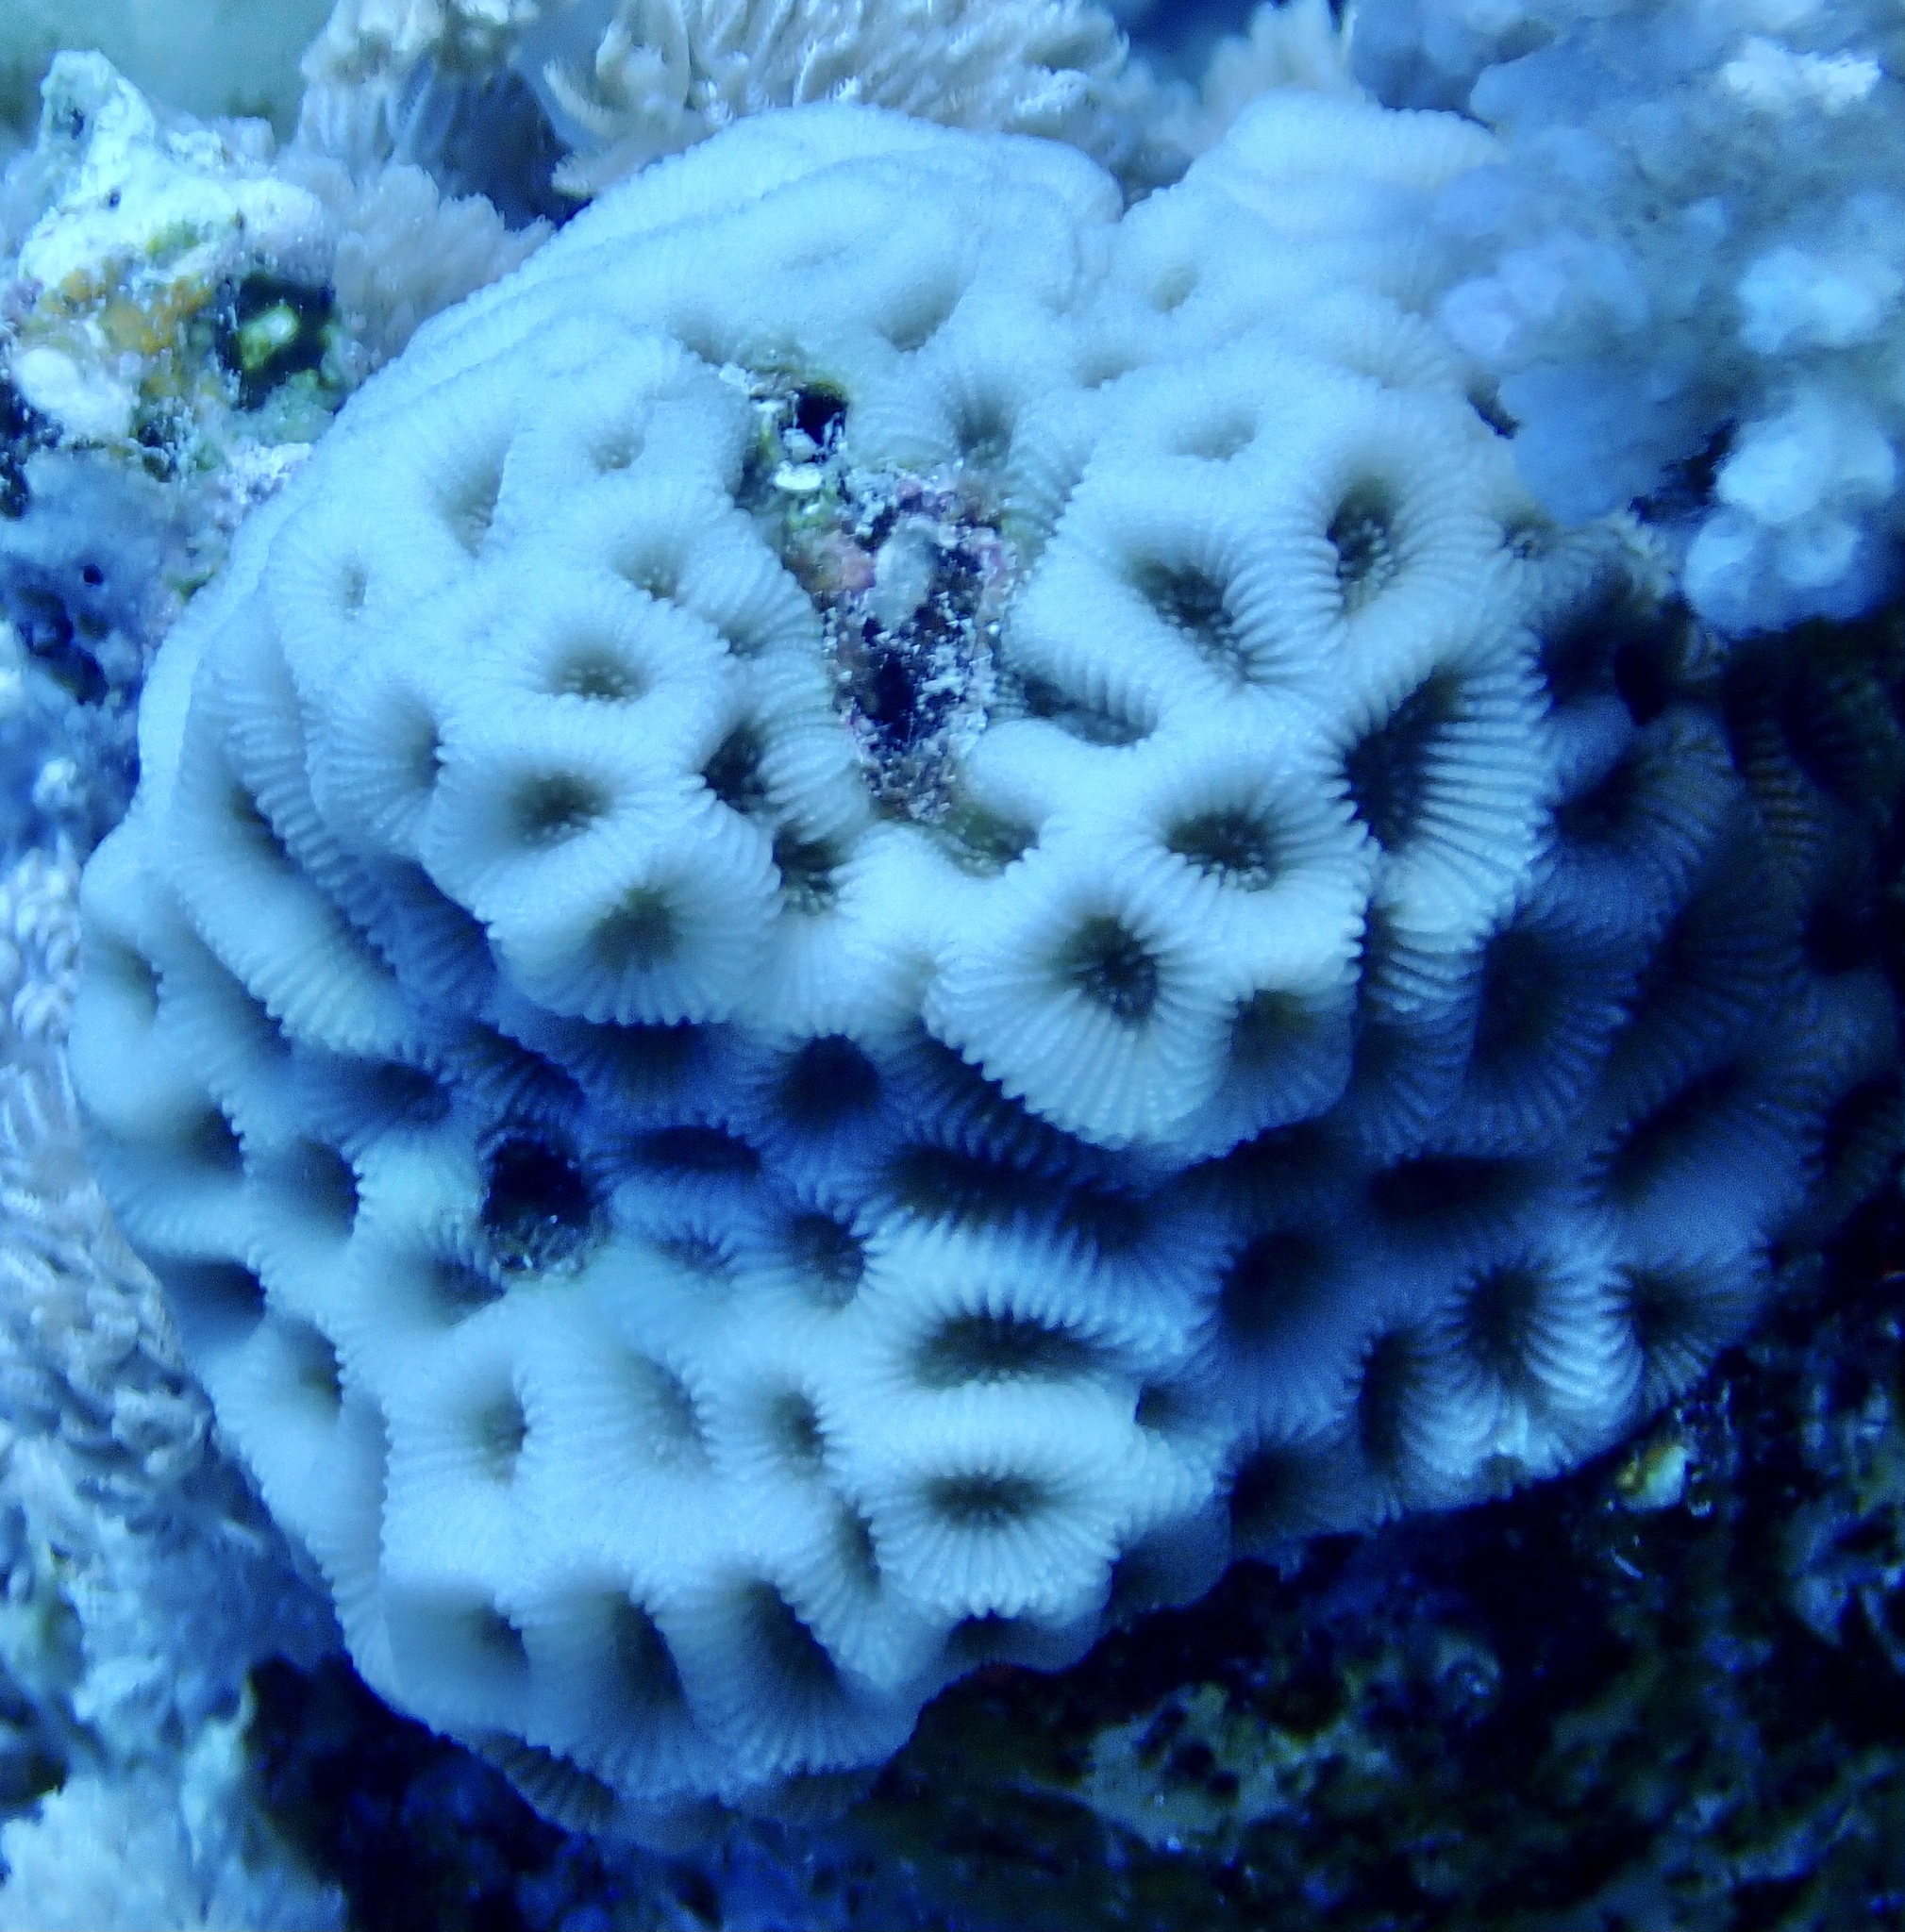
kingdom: Animalia
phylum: Cnidaria
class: Anthozoa
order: Scleractinia
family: Merulinidae
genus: Goniastrea
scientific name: Goniastrea pectinata
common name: Lesser star coral
